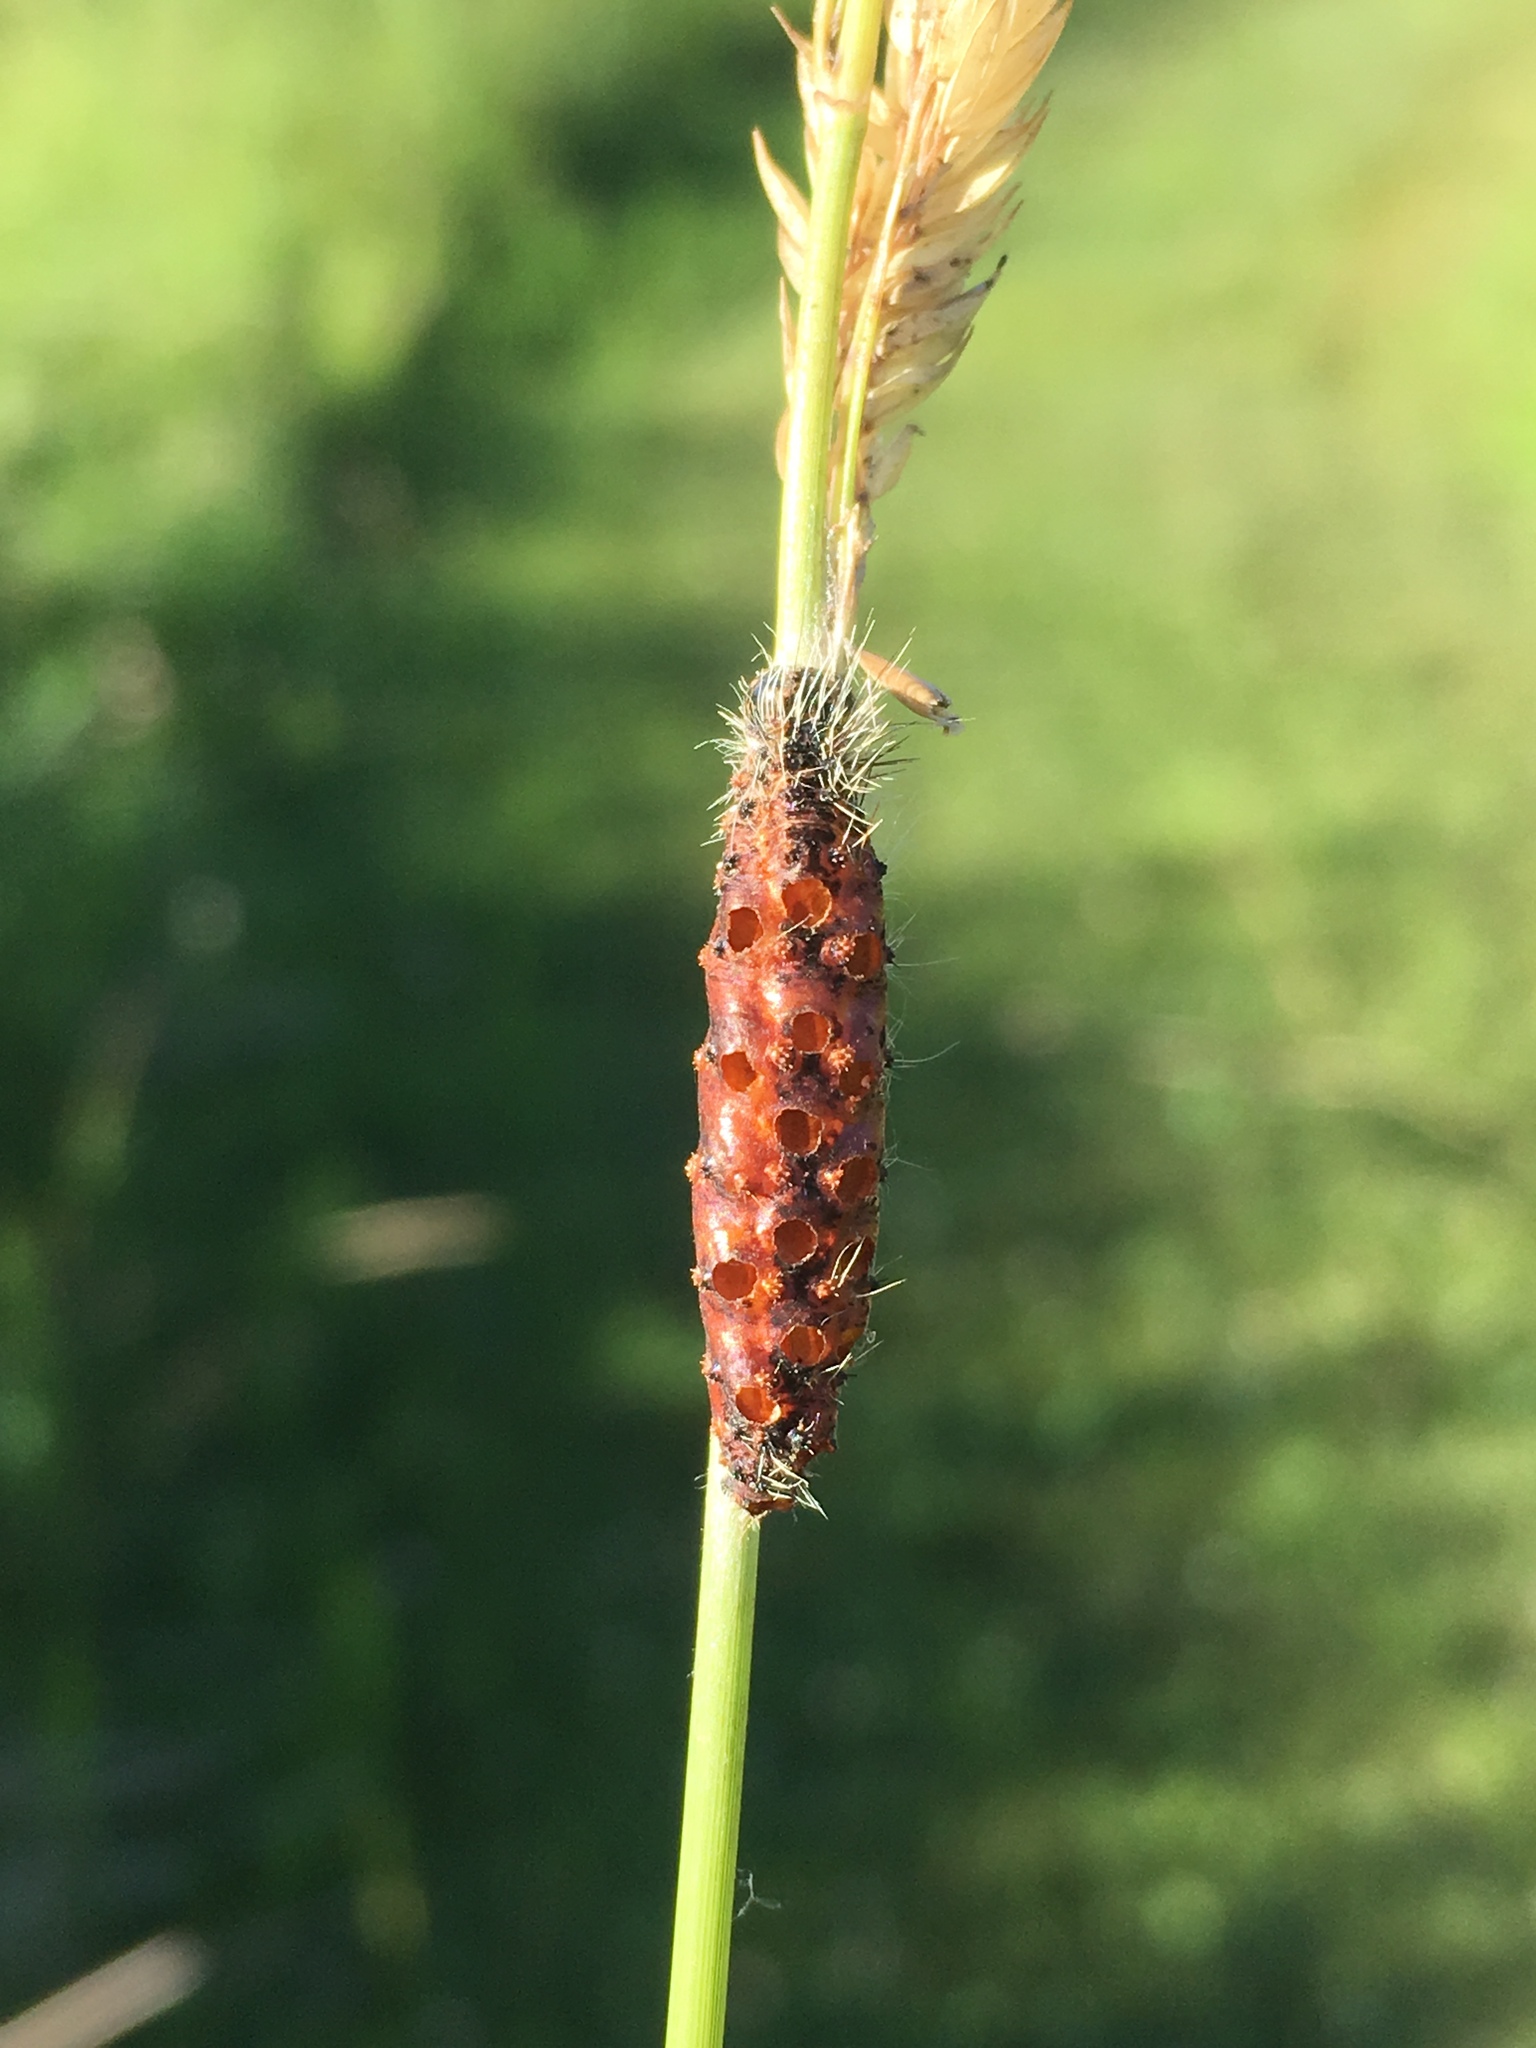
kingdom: Animalia
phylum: Arthropoda
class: Insecta
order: Lepidoptera
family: Noctuidae
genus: Acronicta
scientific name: Acronicta insularis
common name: Henry's marsh moth
